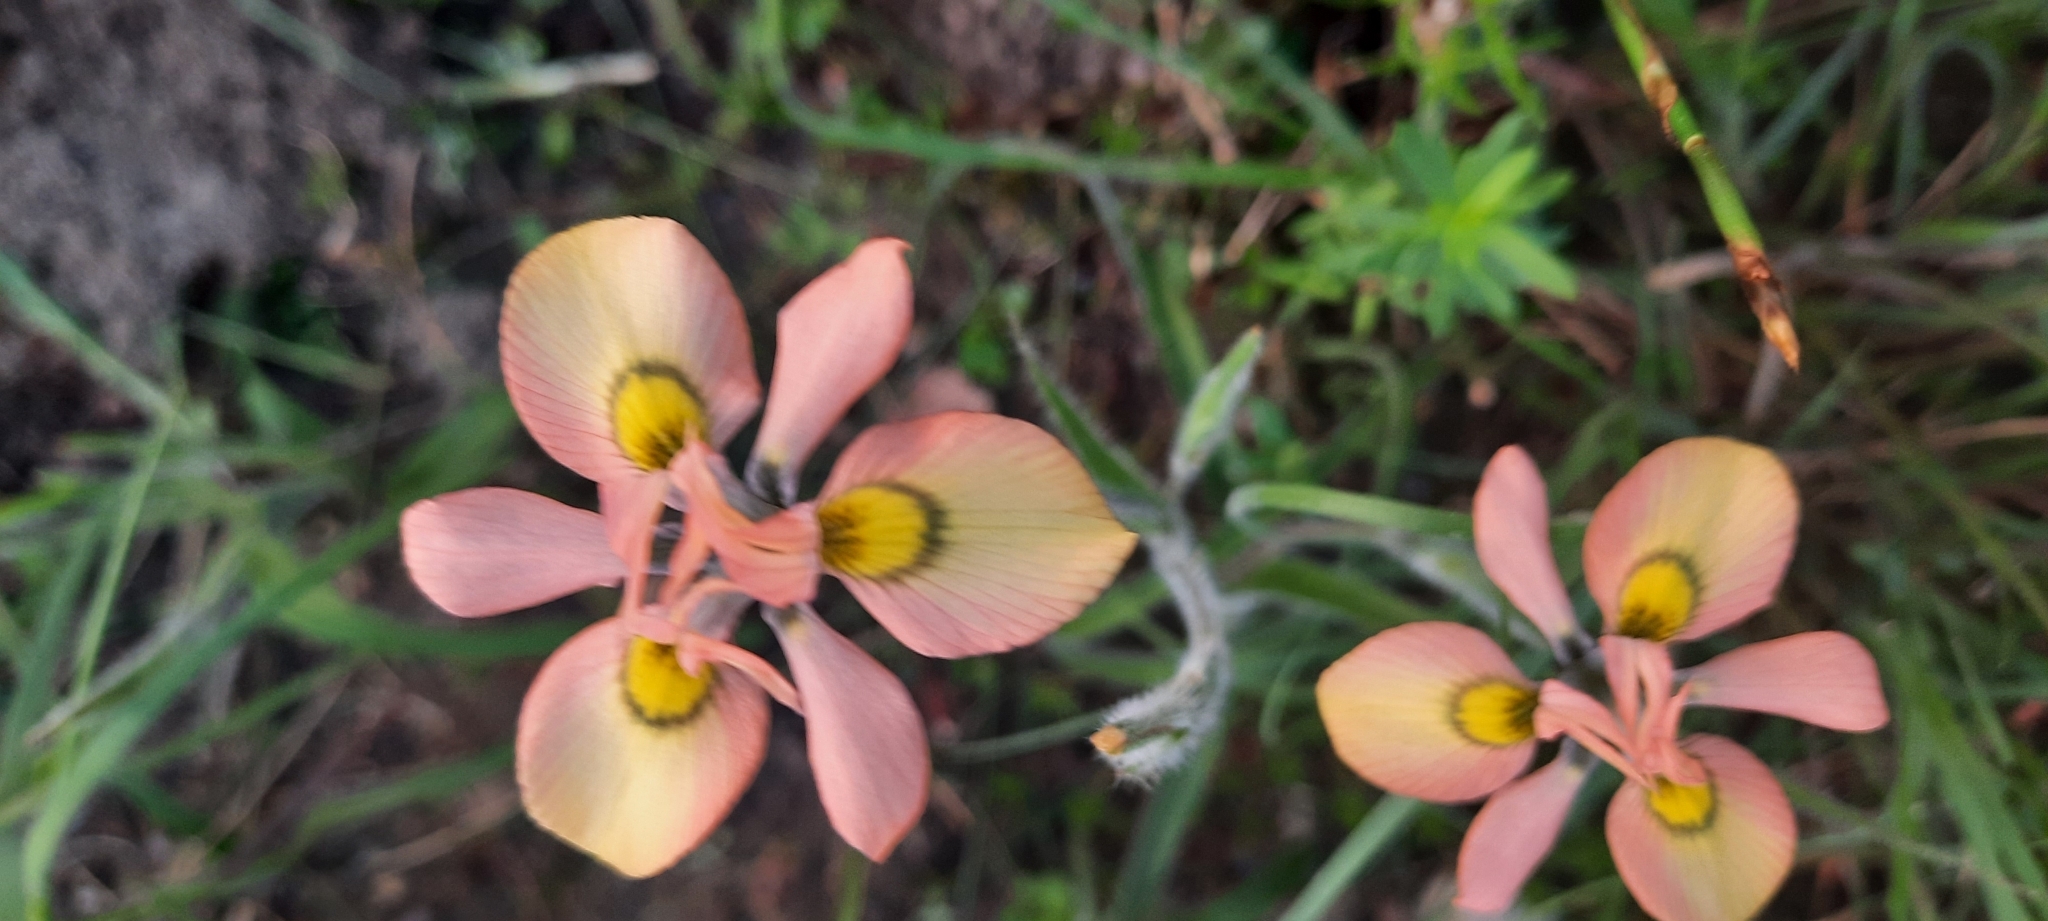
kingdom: Plantae
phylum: Tracheophyta
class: Liliopsida
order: Asparagales
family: Iridaceae
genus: Moraea
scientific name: Moraea papilionacea
